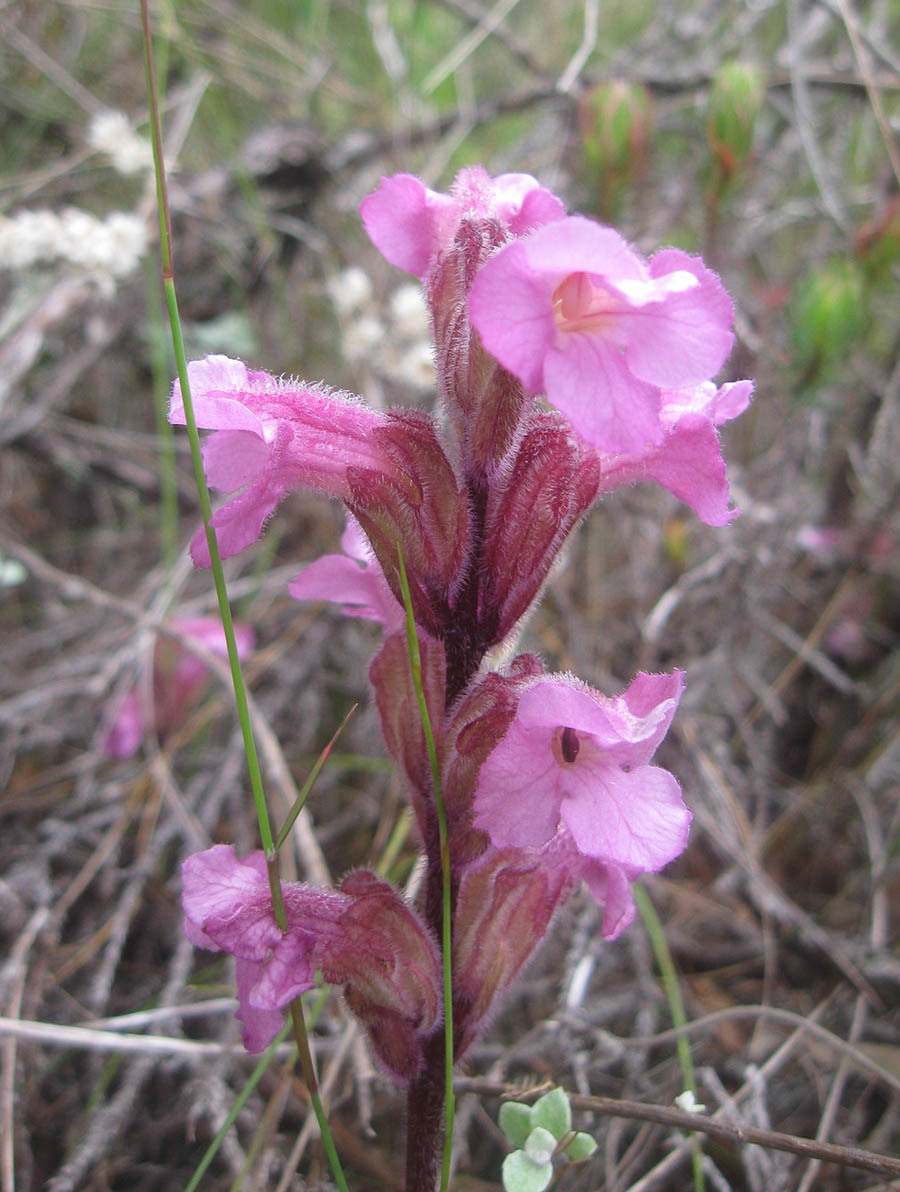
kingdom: Plantae
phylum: Tracheophyta
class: Magnoliopsida
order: Lamiales
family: Orobanchaceae
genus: Harveya
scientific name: Harveya pauciflora
